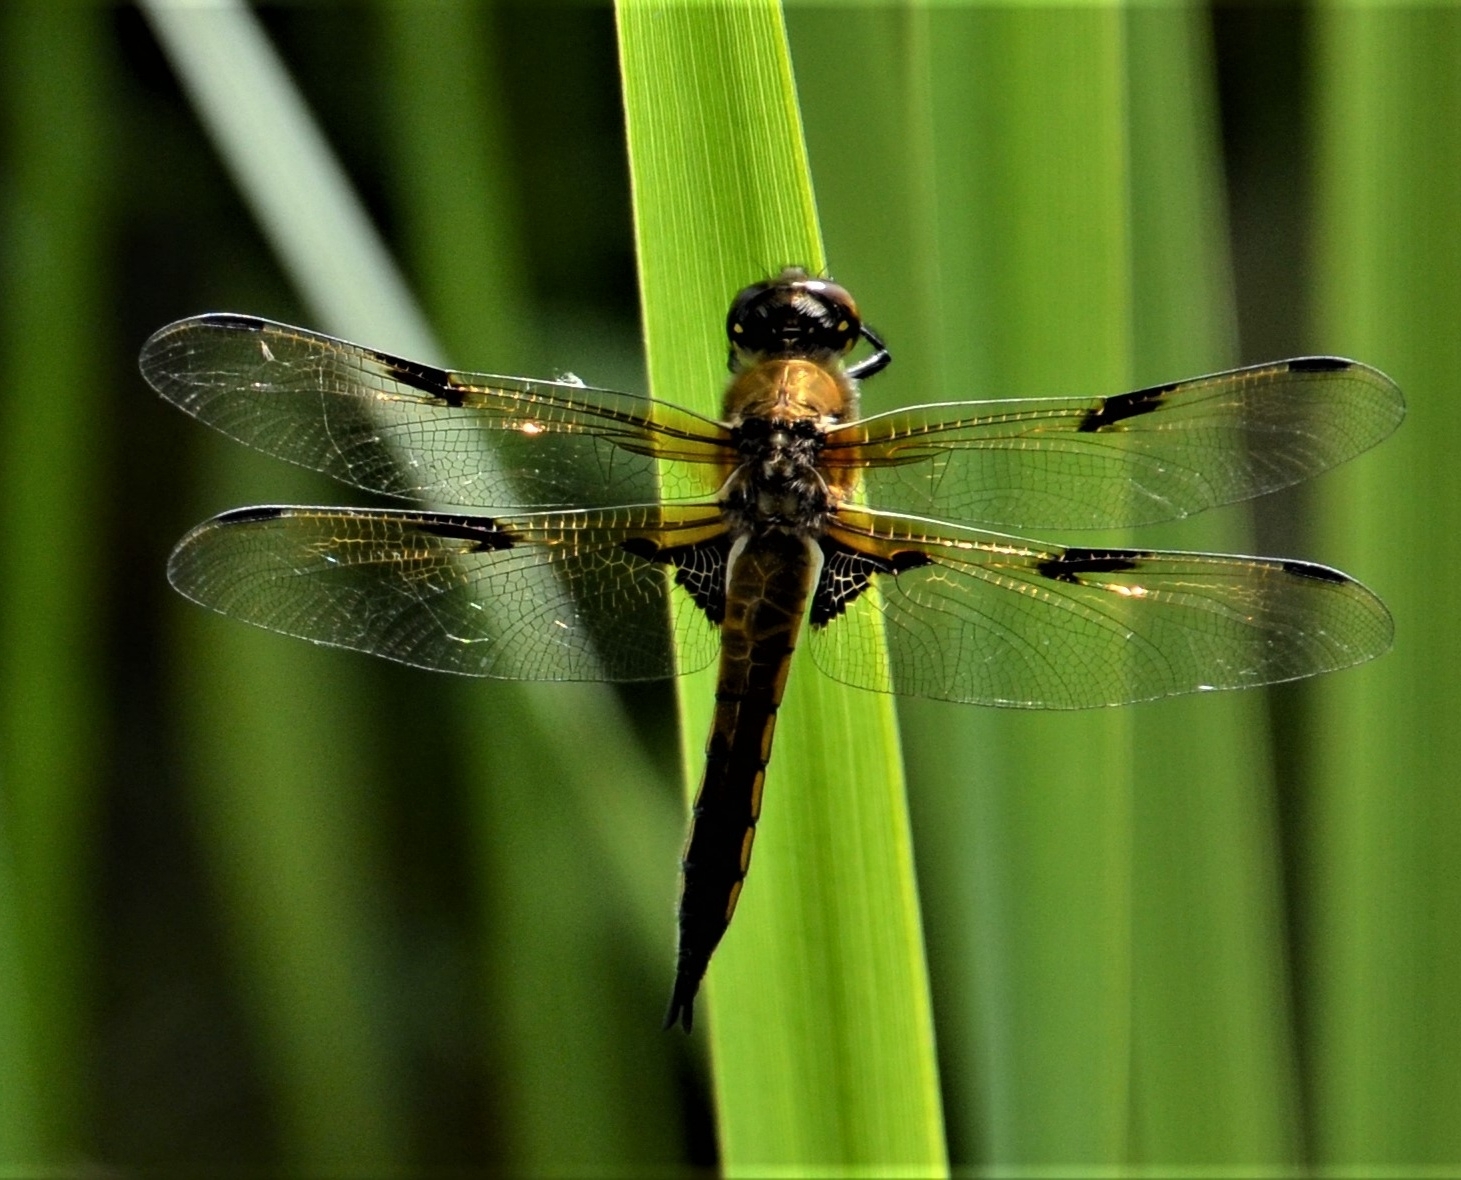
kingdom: Animalia
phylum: Arthropoda
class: Insecta
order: Odonata
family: Libellulidae
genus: Libellula
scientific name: Libellula quadrimaculata
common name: Four-spotted chaser
